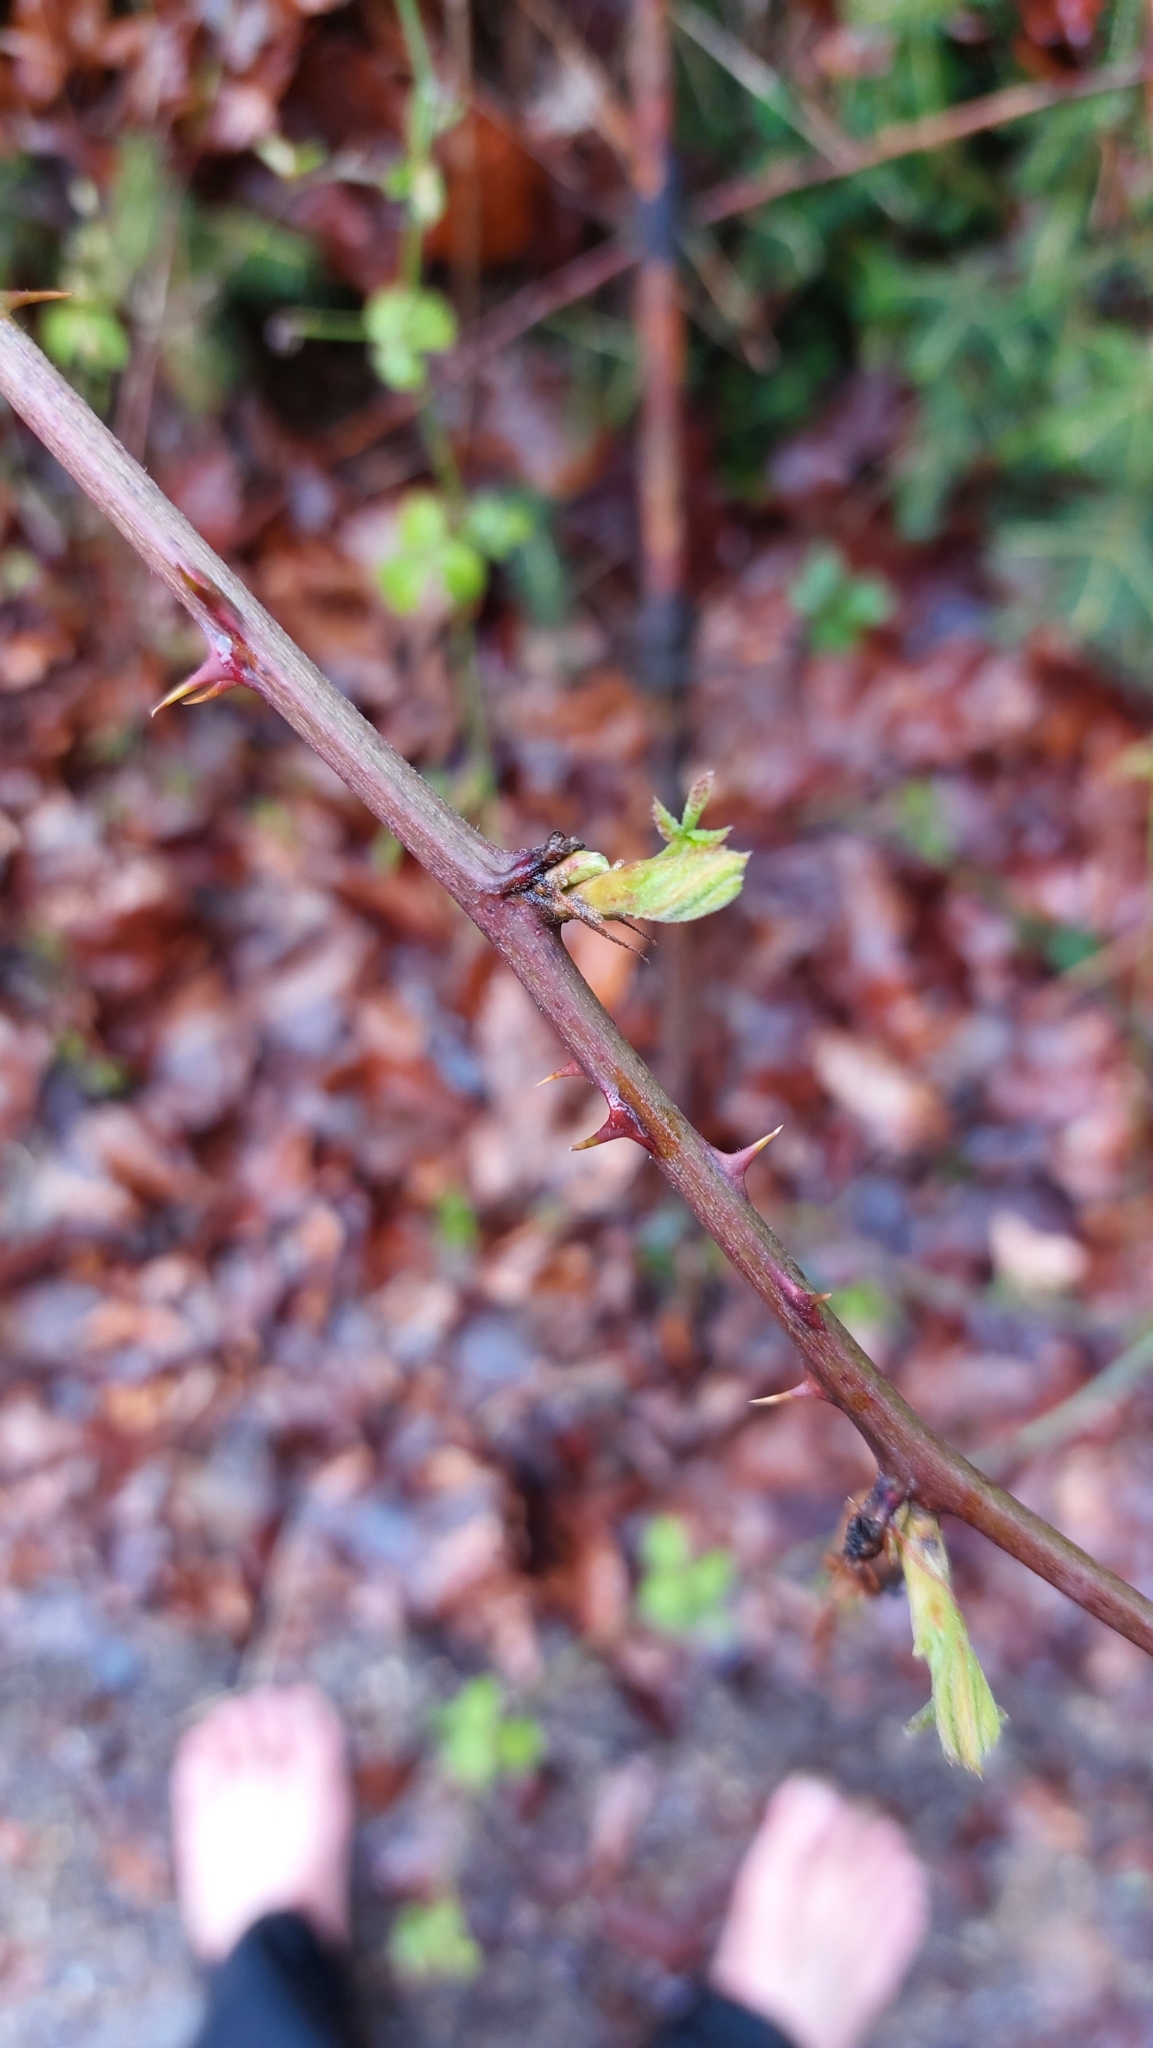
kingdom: Plantae
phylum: Tracheophyta
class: Magnoliopsida
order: Rosales
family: Rosaceae
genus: Rubus
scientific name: Rubus
